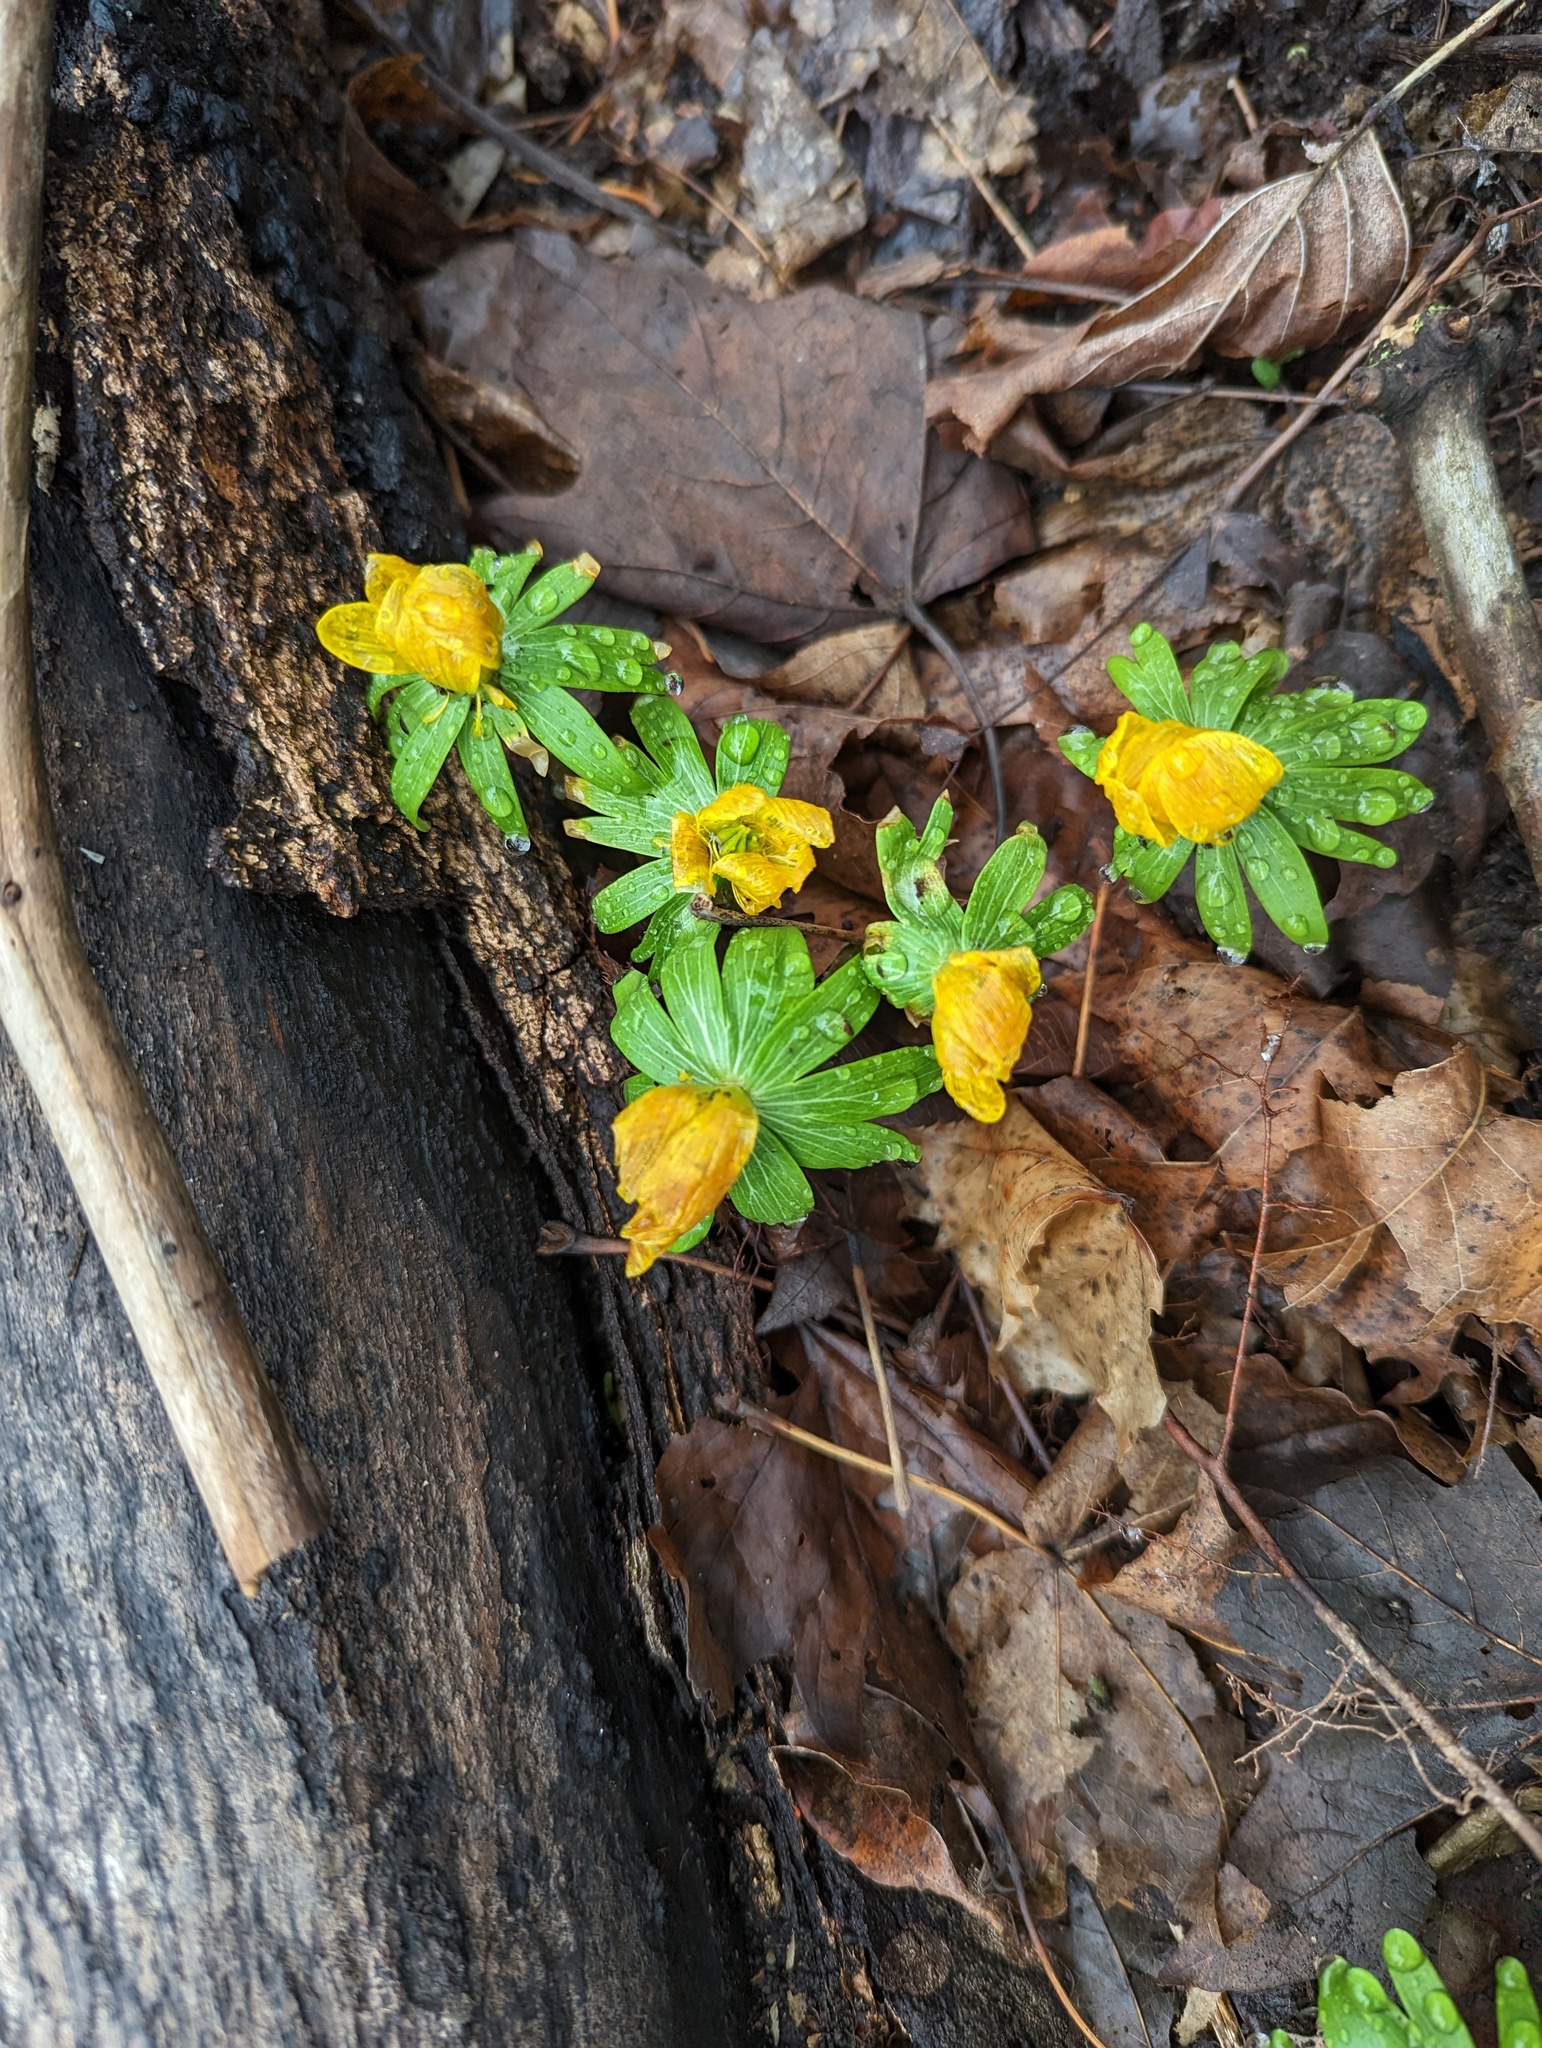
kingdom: Plantae
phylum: Tracheophyta
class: Magnoliopsida
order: Ranunculales
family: Ranunculaceae
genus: Eranthis
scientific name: Eranthis hyemalis
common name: Winter aconite
